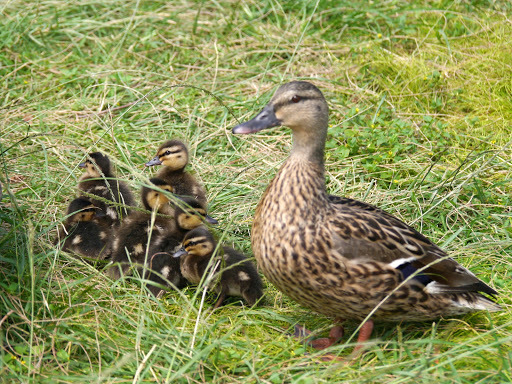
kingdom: Animalia
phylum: Chordata
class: Aves
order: Anseriformes
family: Anatidae
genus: Anas
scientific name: Anas platyrhynchos
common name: Mallard
